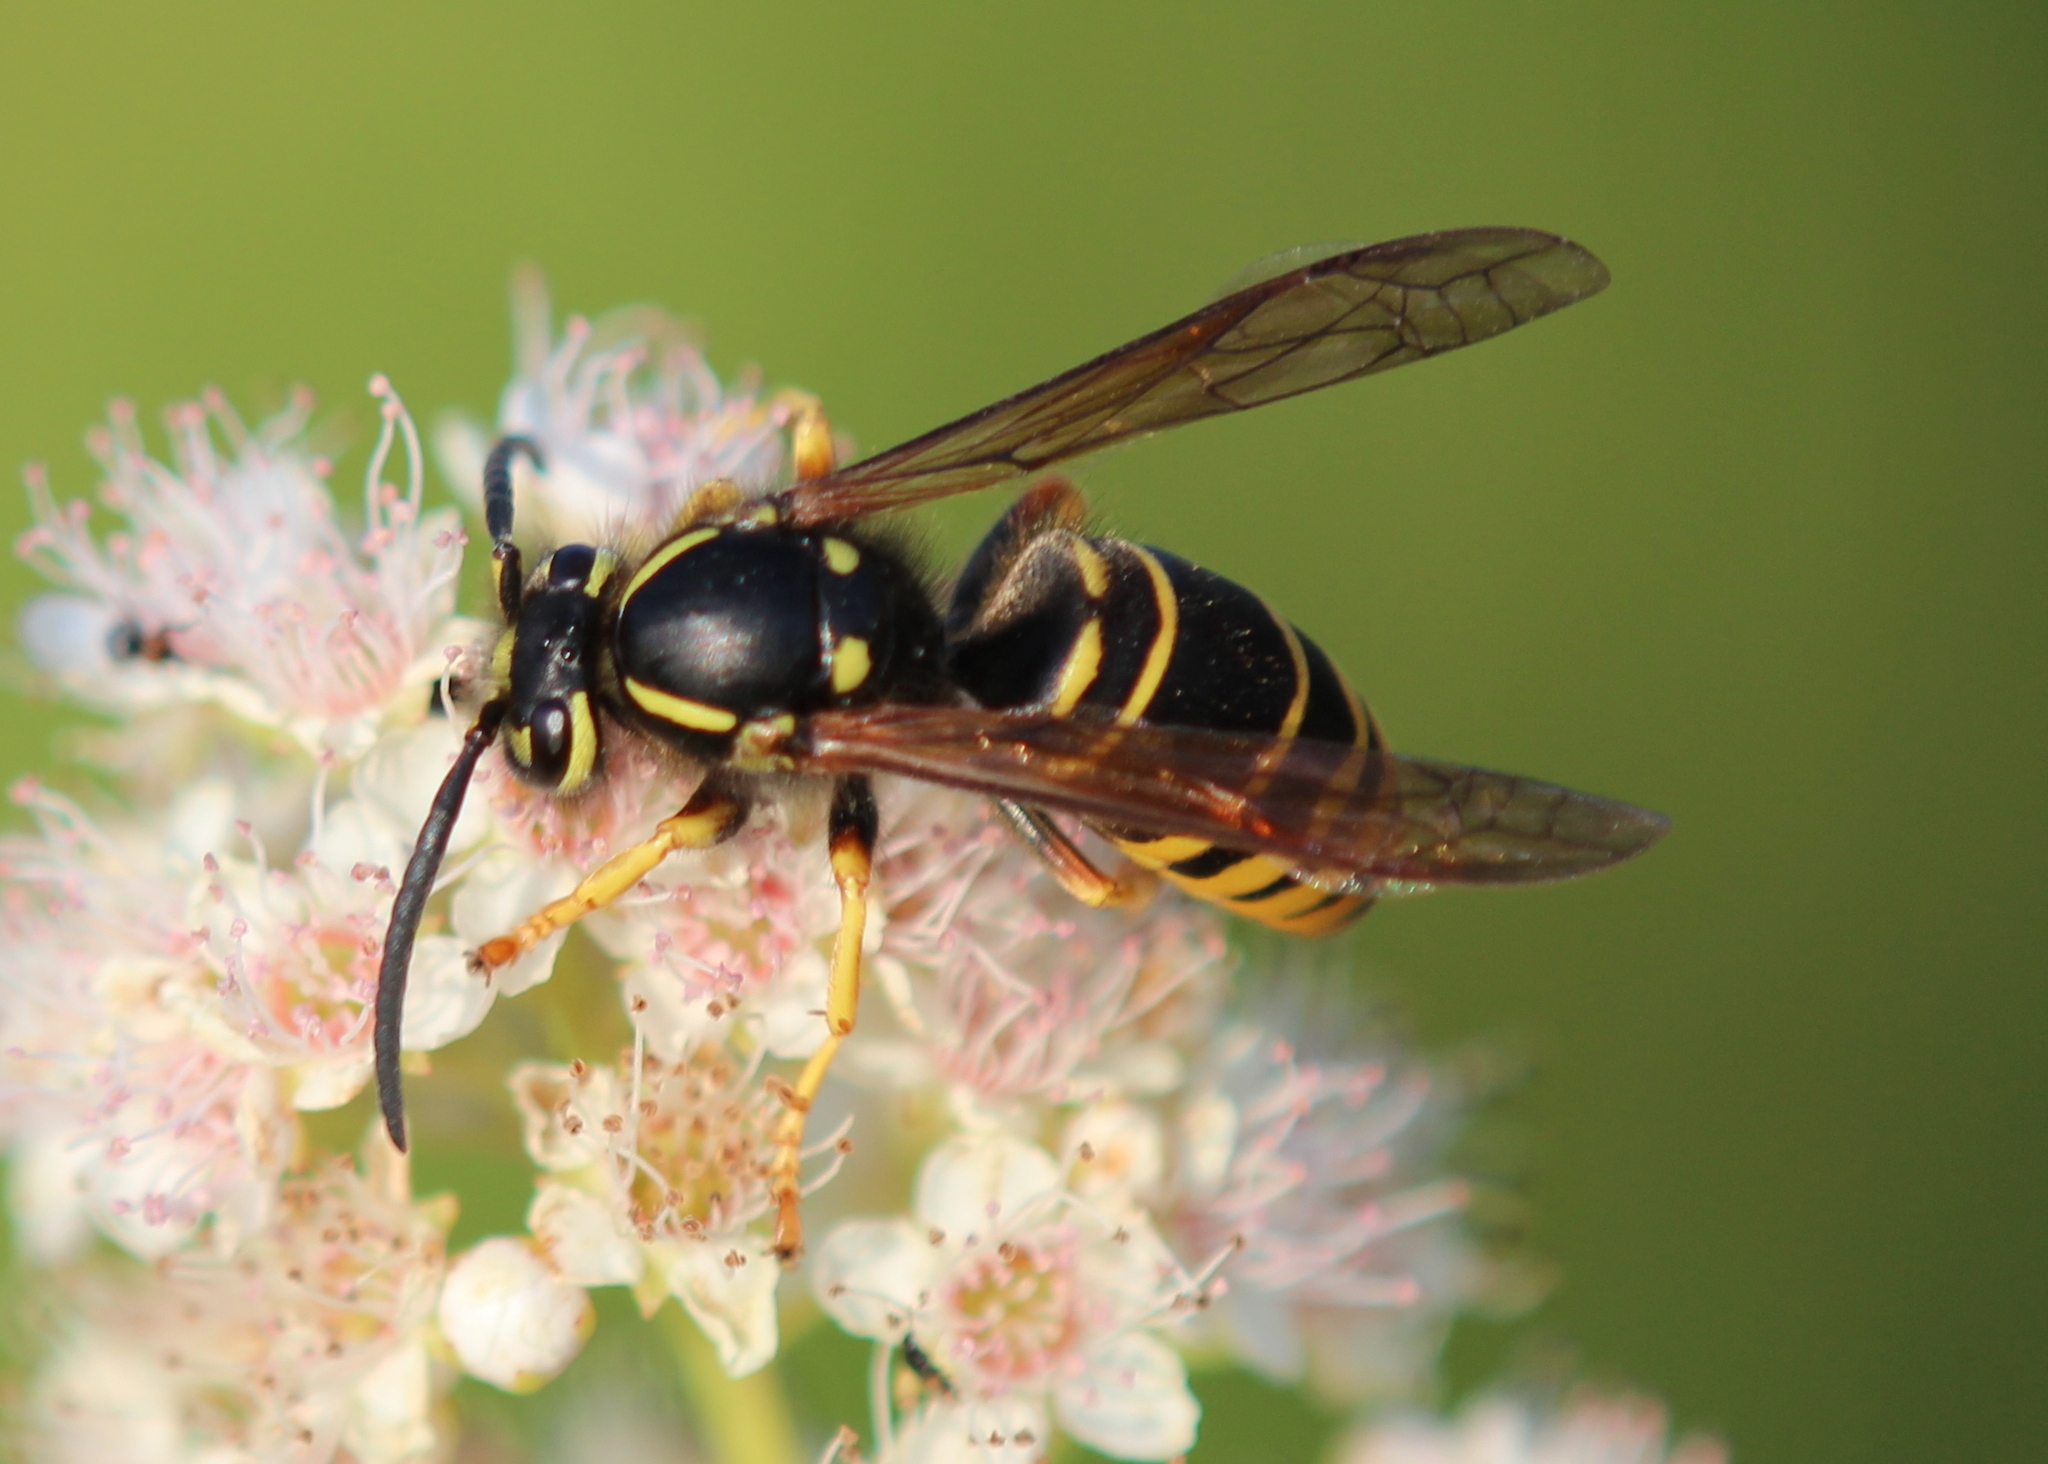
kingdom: Animalia
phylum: Arthropoda
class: Insecta
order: Hymenoptera
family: Vespidae
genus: Vespula
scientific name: Vespula vidua
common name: Widow yellowjacket
